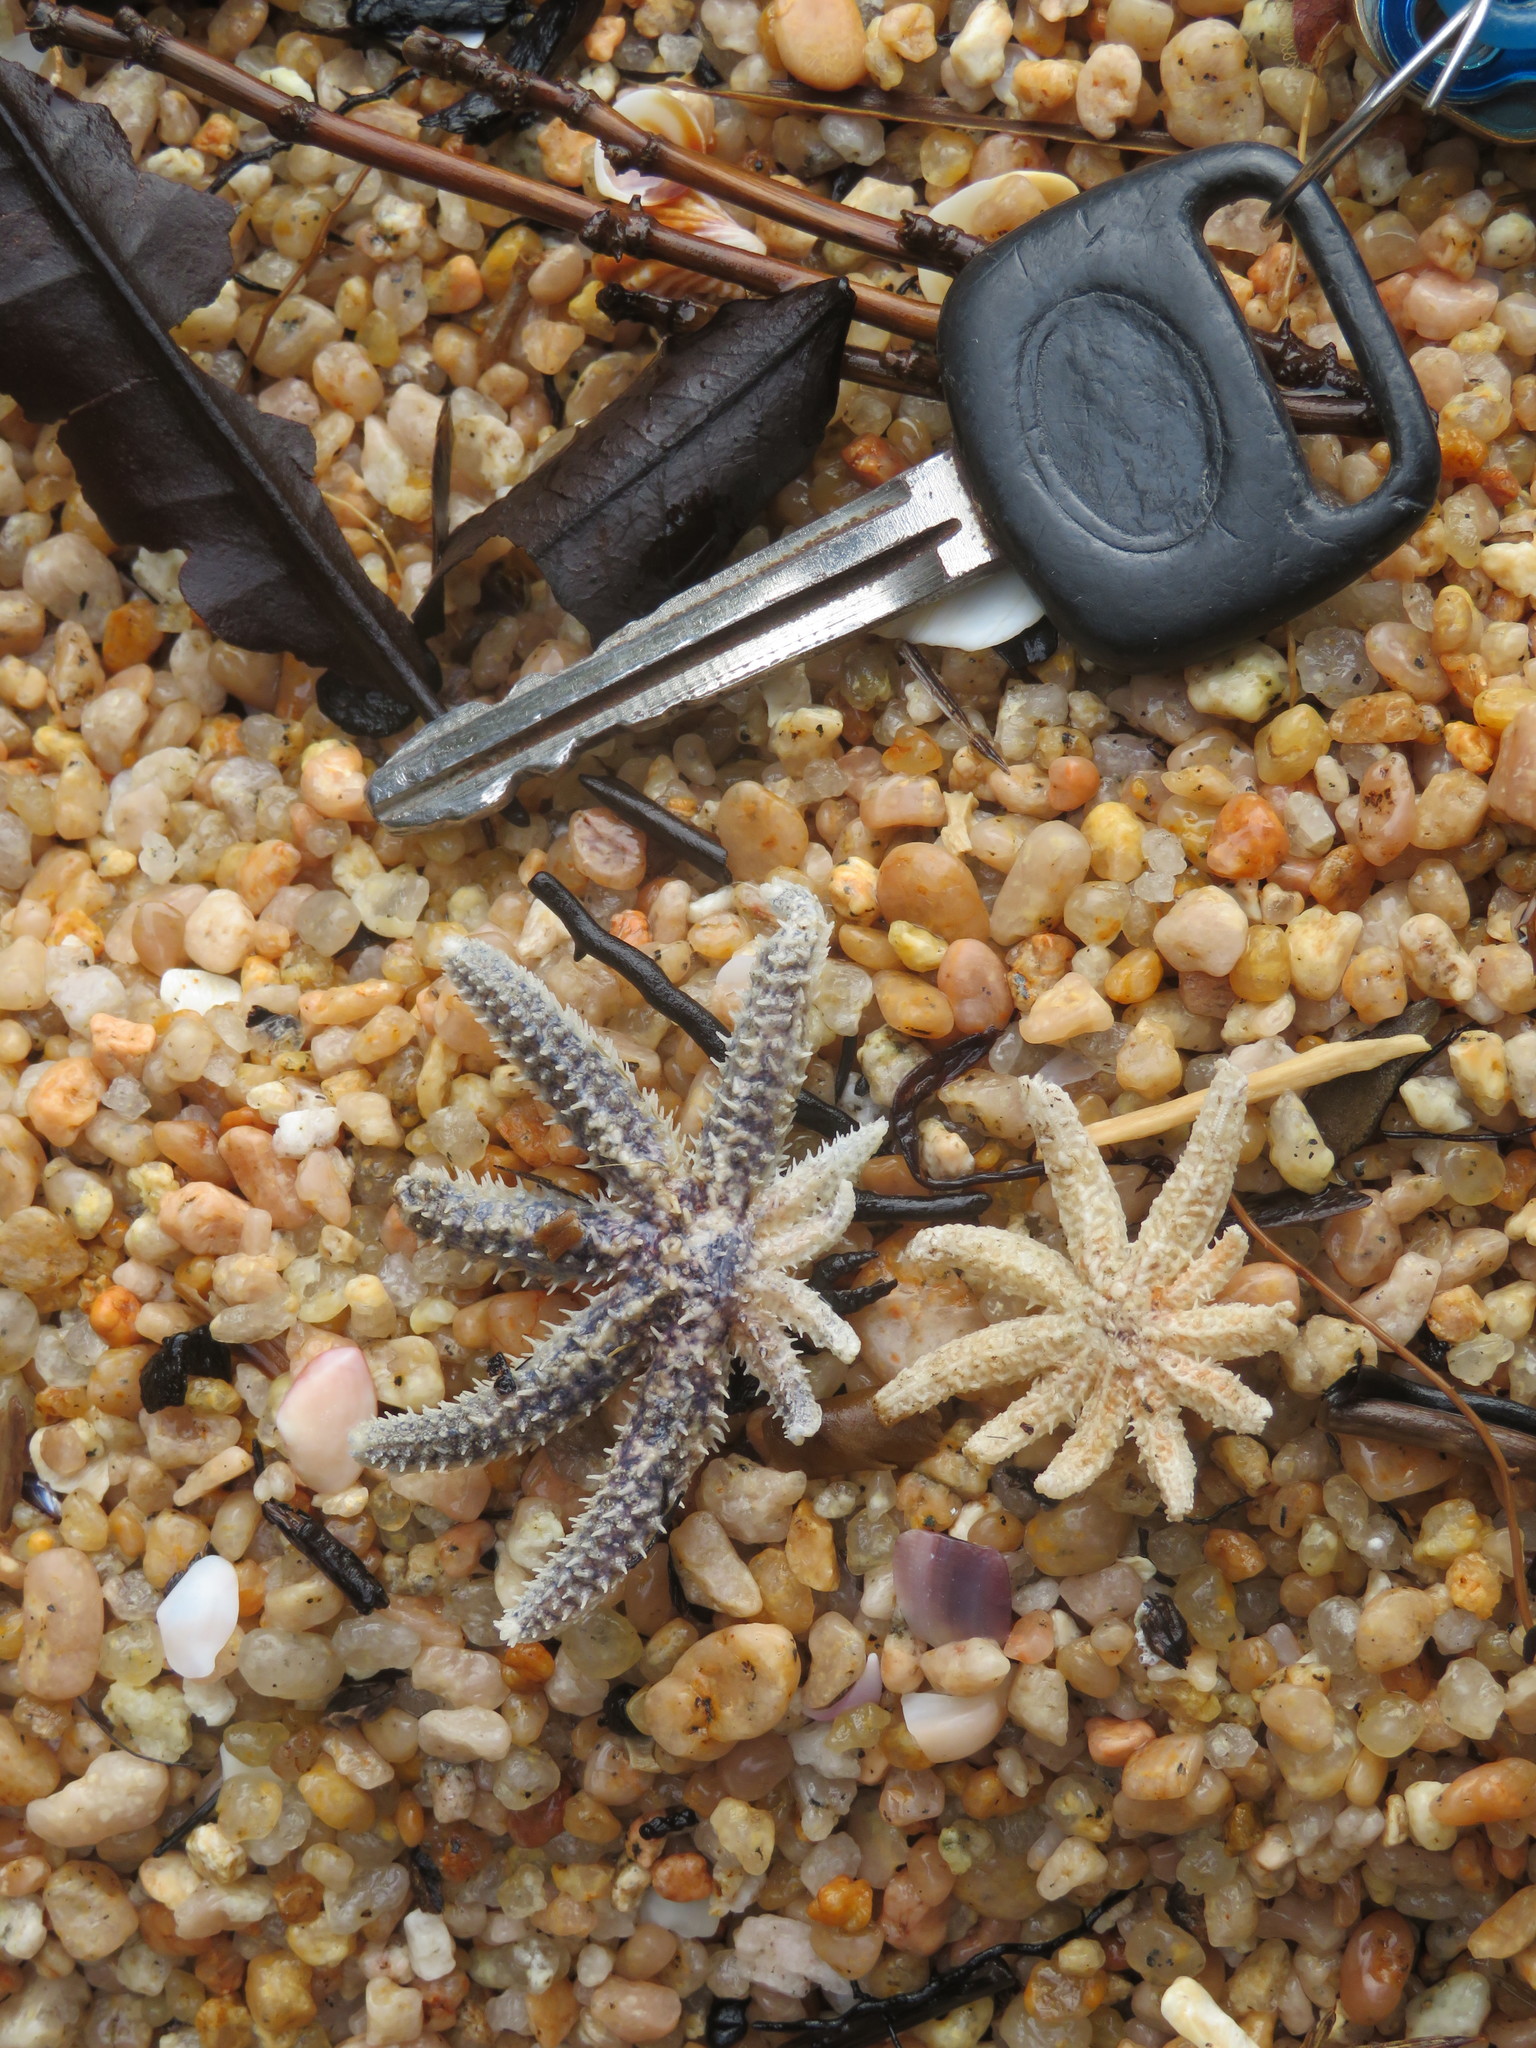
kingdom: Animalia
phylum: Echinodermata
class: Asteroidea
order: Forcipulatida
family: Asteriidae
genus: Coscinasterias
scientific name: Coscinasterias muricata
